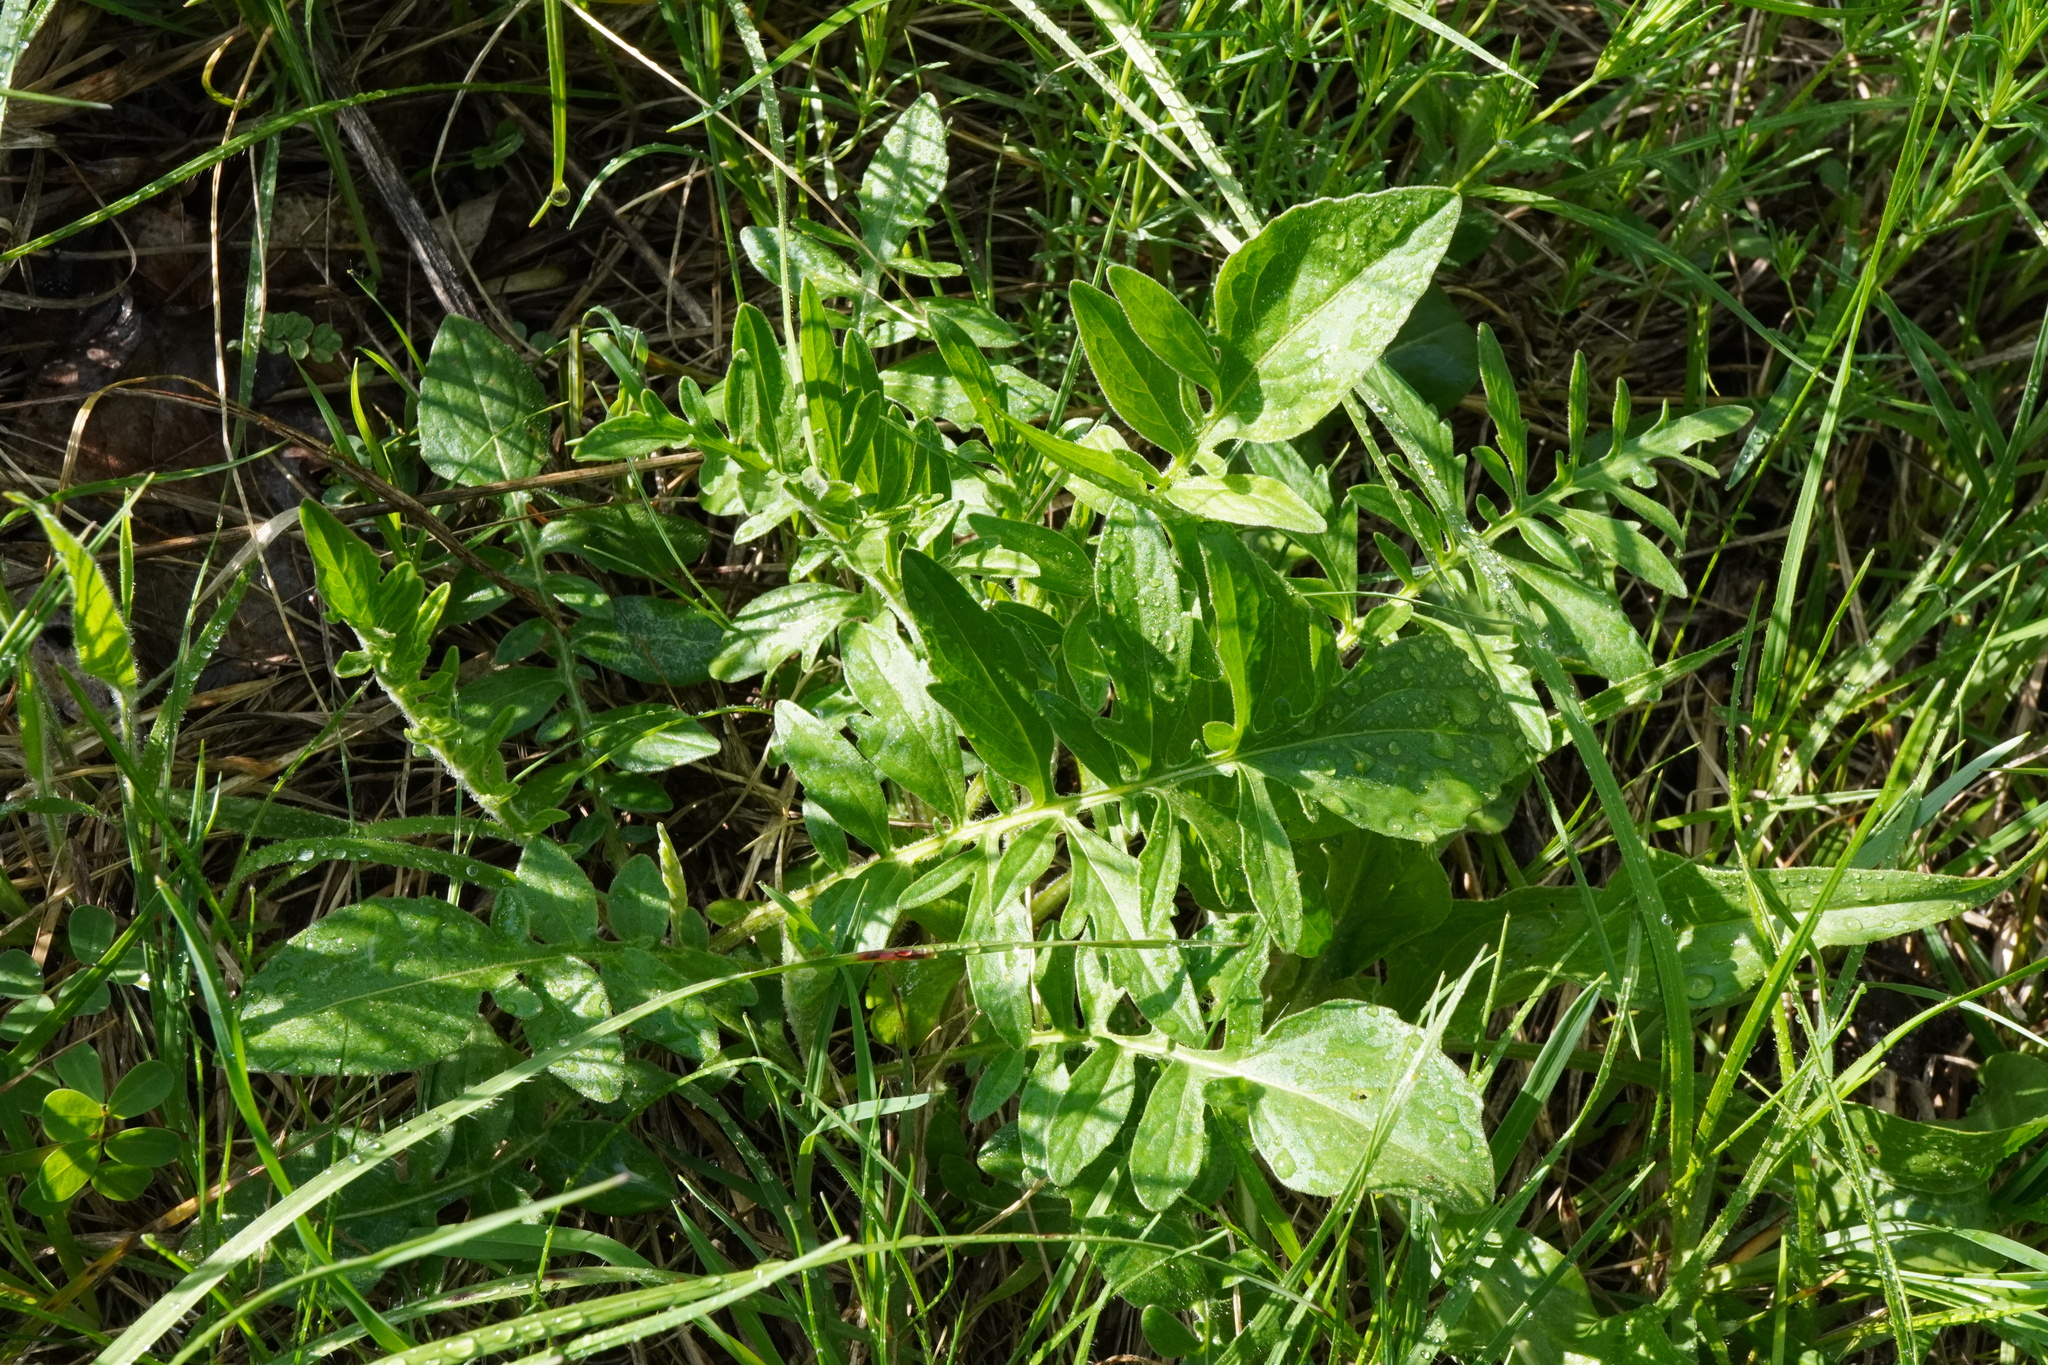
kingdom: Plantae
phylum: Tracheophyta
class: Magnoliopsida
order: Asterales
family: Asteraceae
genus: Centaurea
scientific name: Centaurea scabiosa
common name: Greater knapweed
